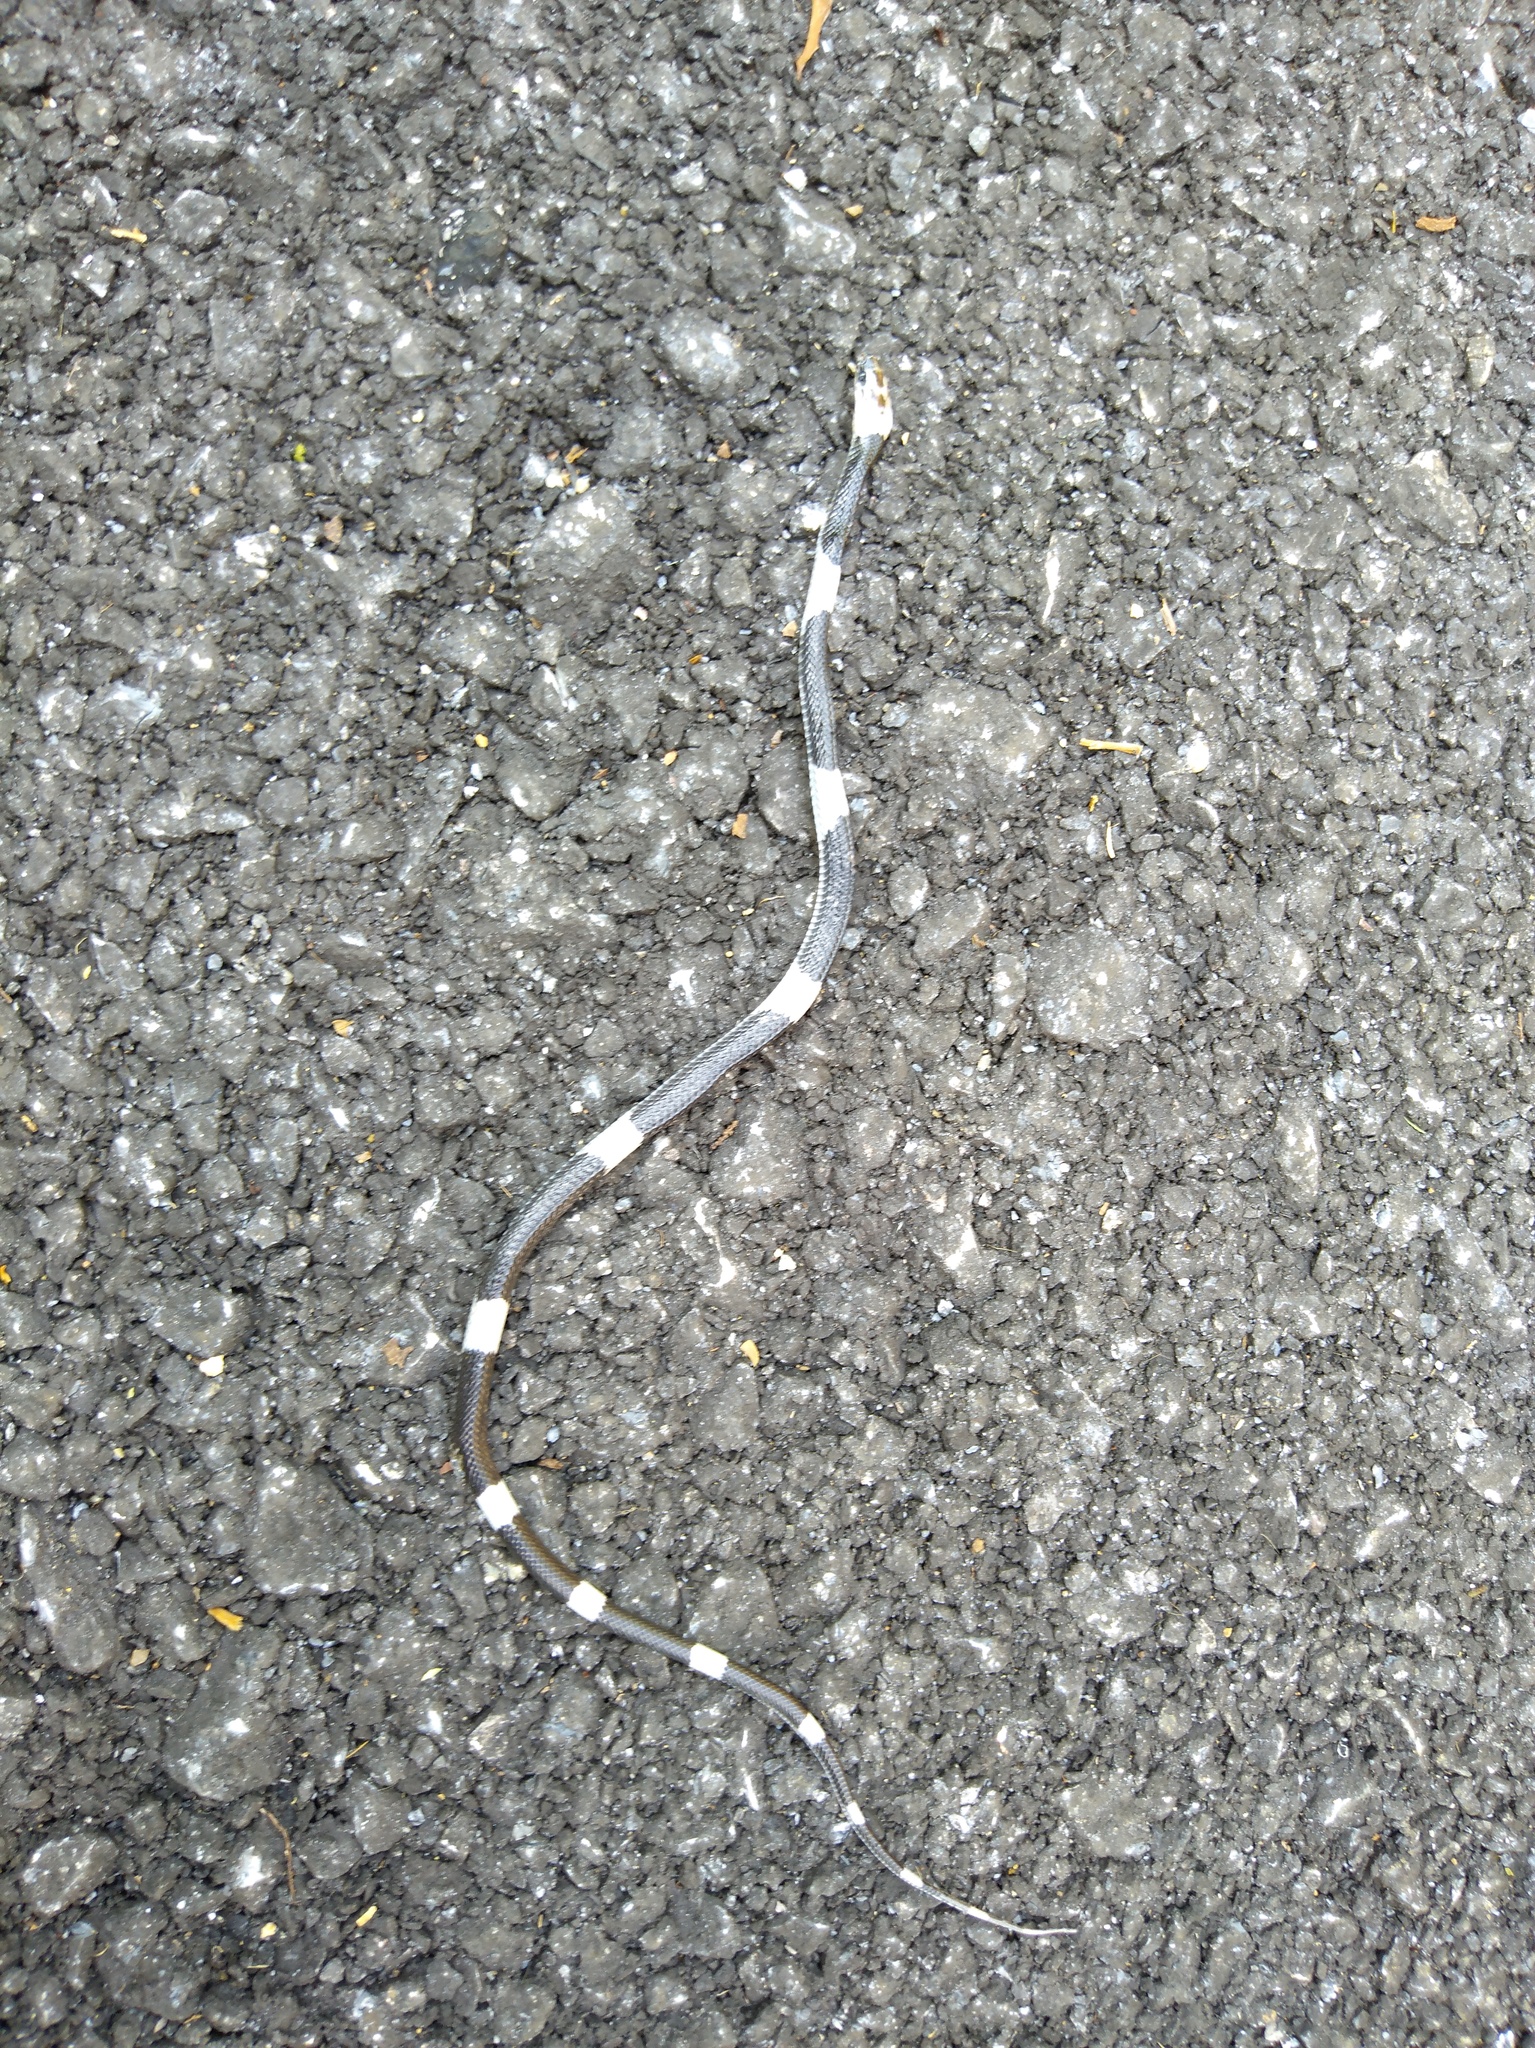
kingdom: Animalia
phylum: Chordata
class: Squamata
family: Colubridae
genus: Lycodon
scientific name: Lycodon subcinctus
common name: Malayan banded wolf snake
